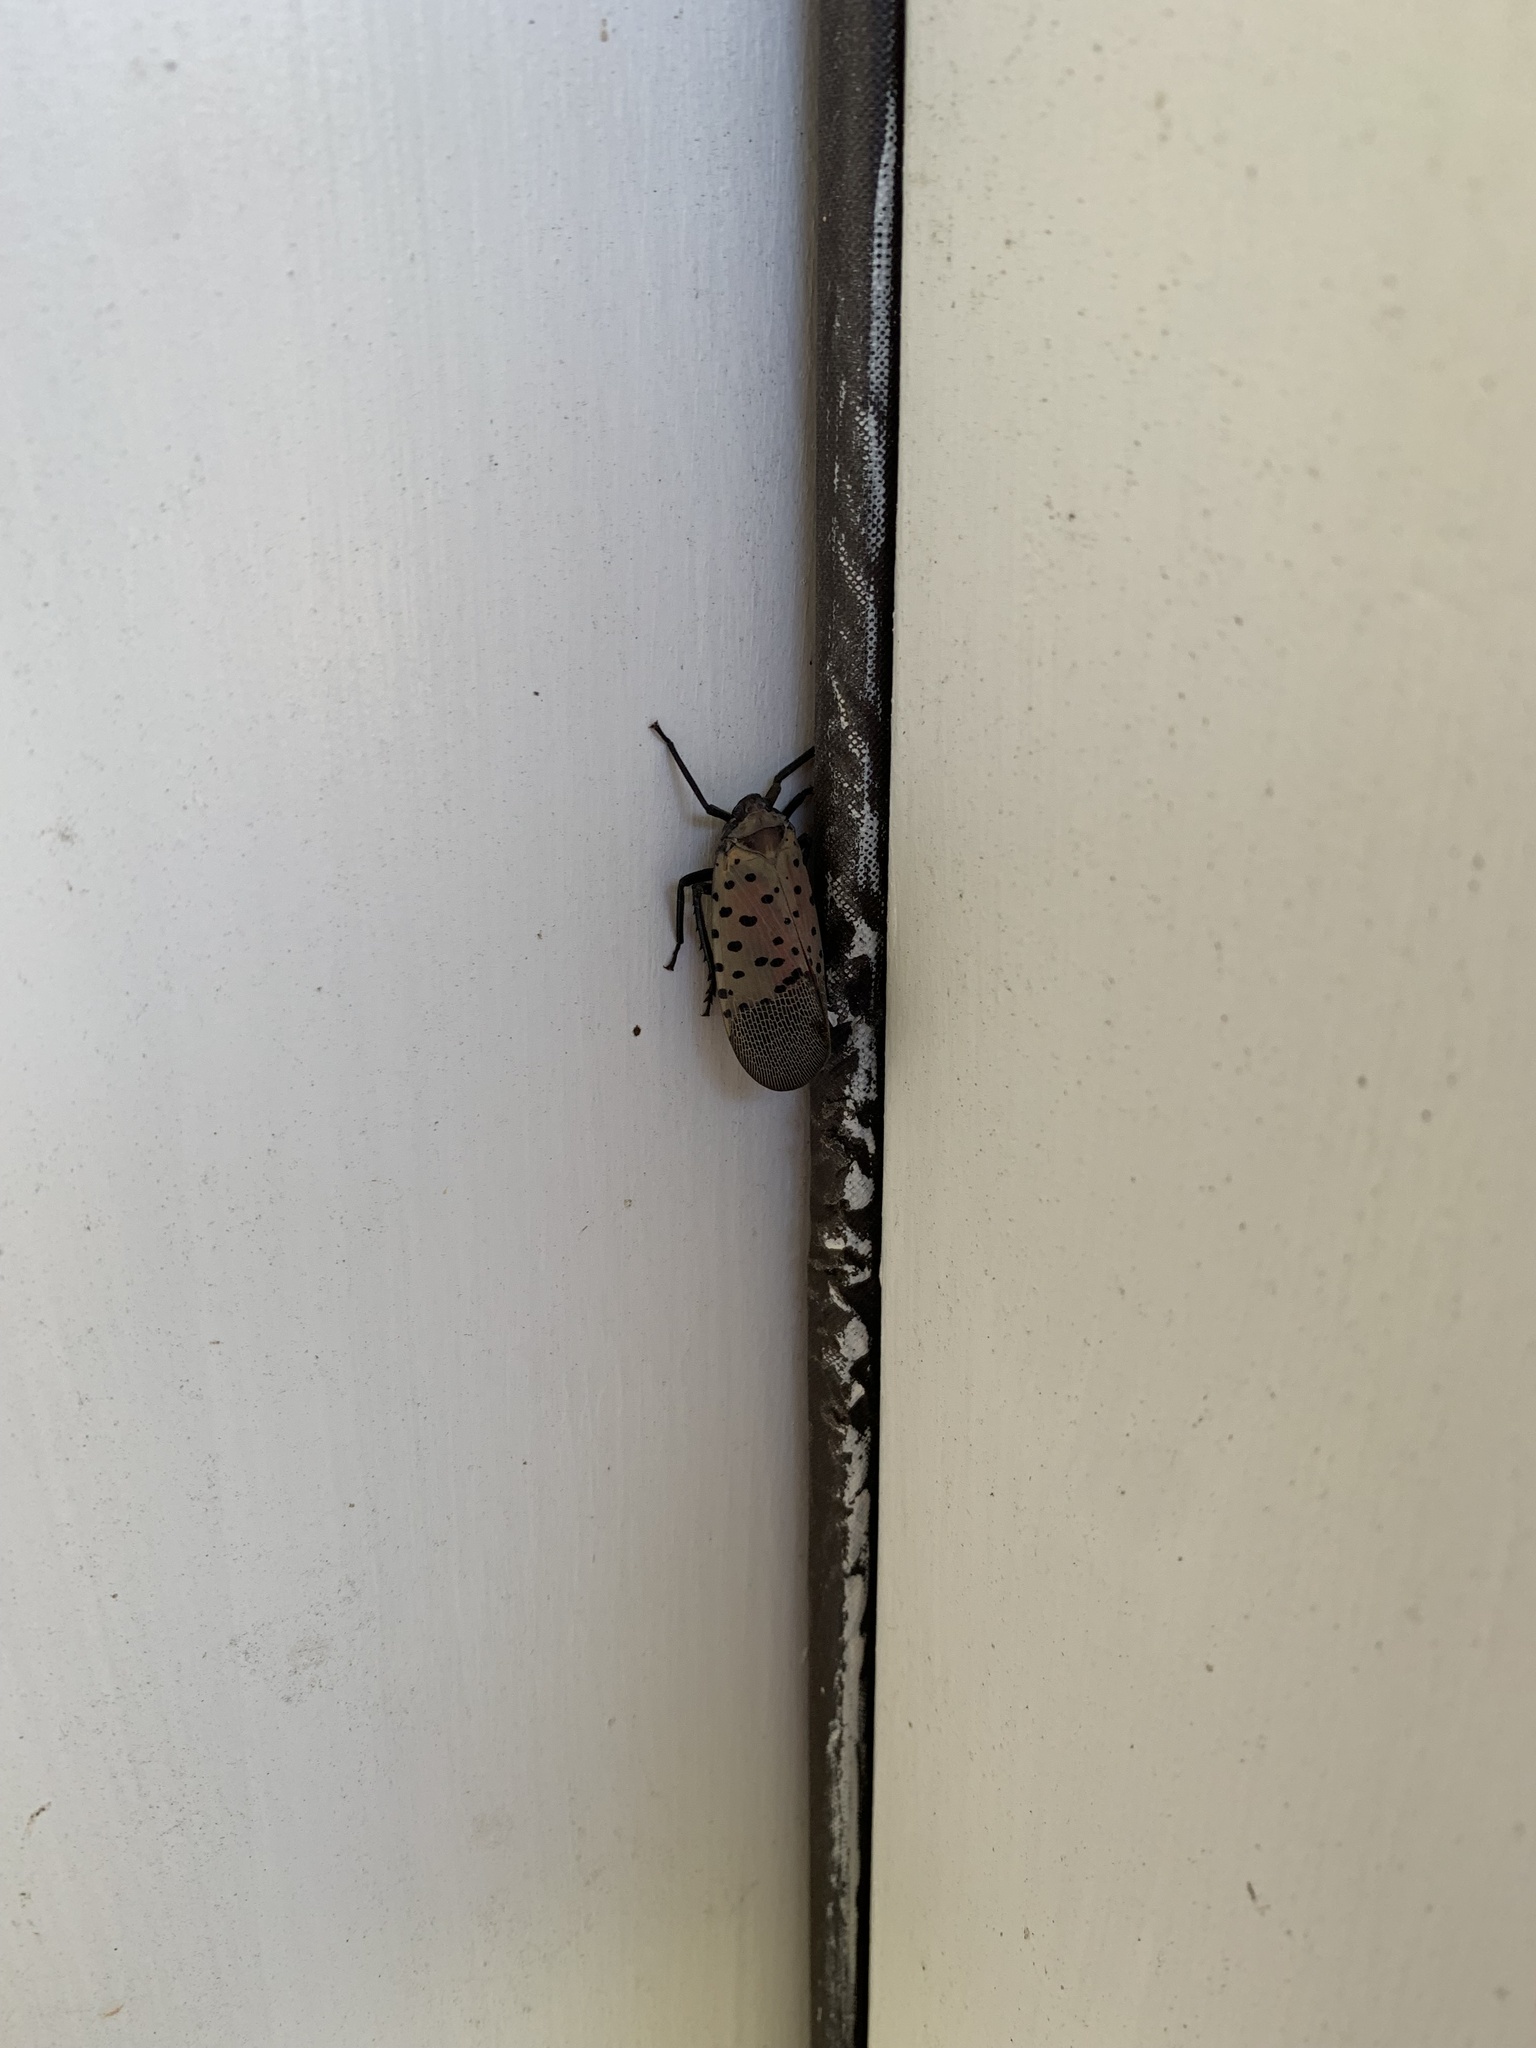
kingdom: Animalia
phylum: Arthropoda
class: Insecta
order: Hemiptera
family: Fulgoridae
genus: Lycorma
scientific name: Lycorma delicatula
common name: Spotted lanternfly
